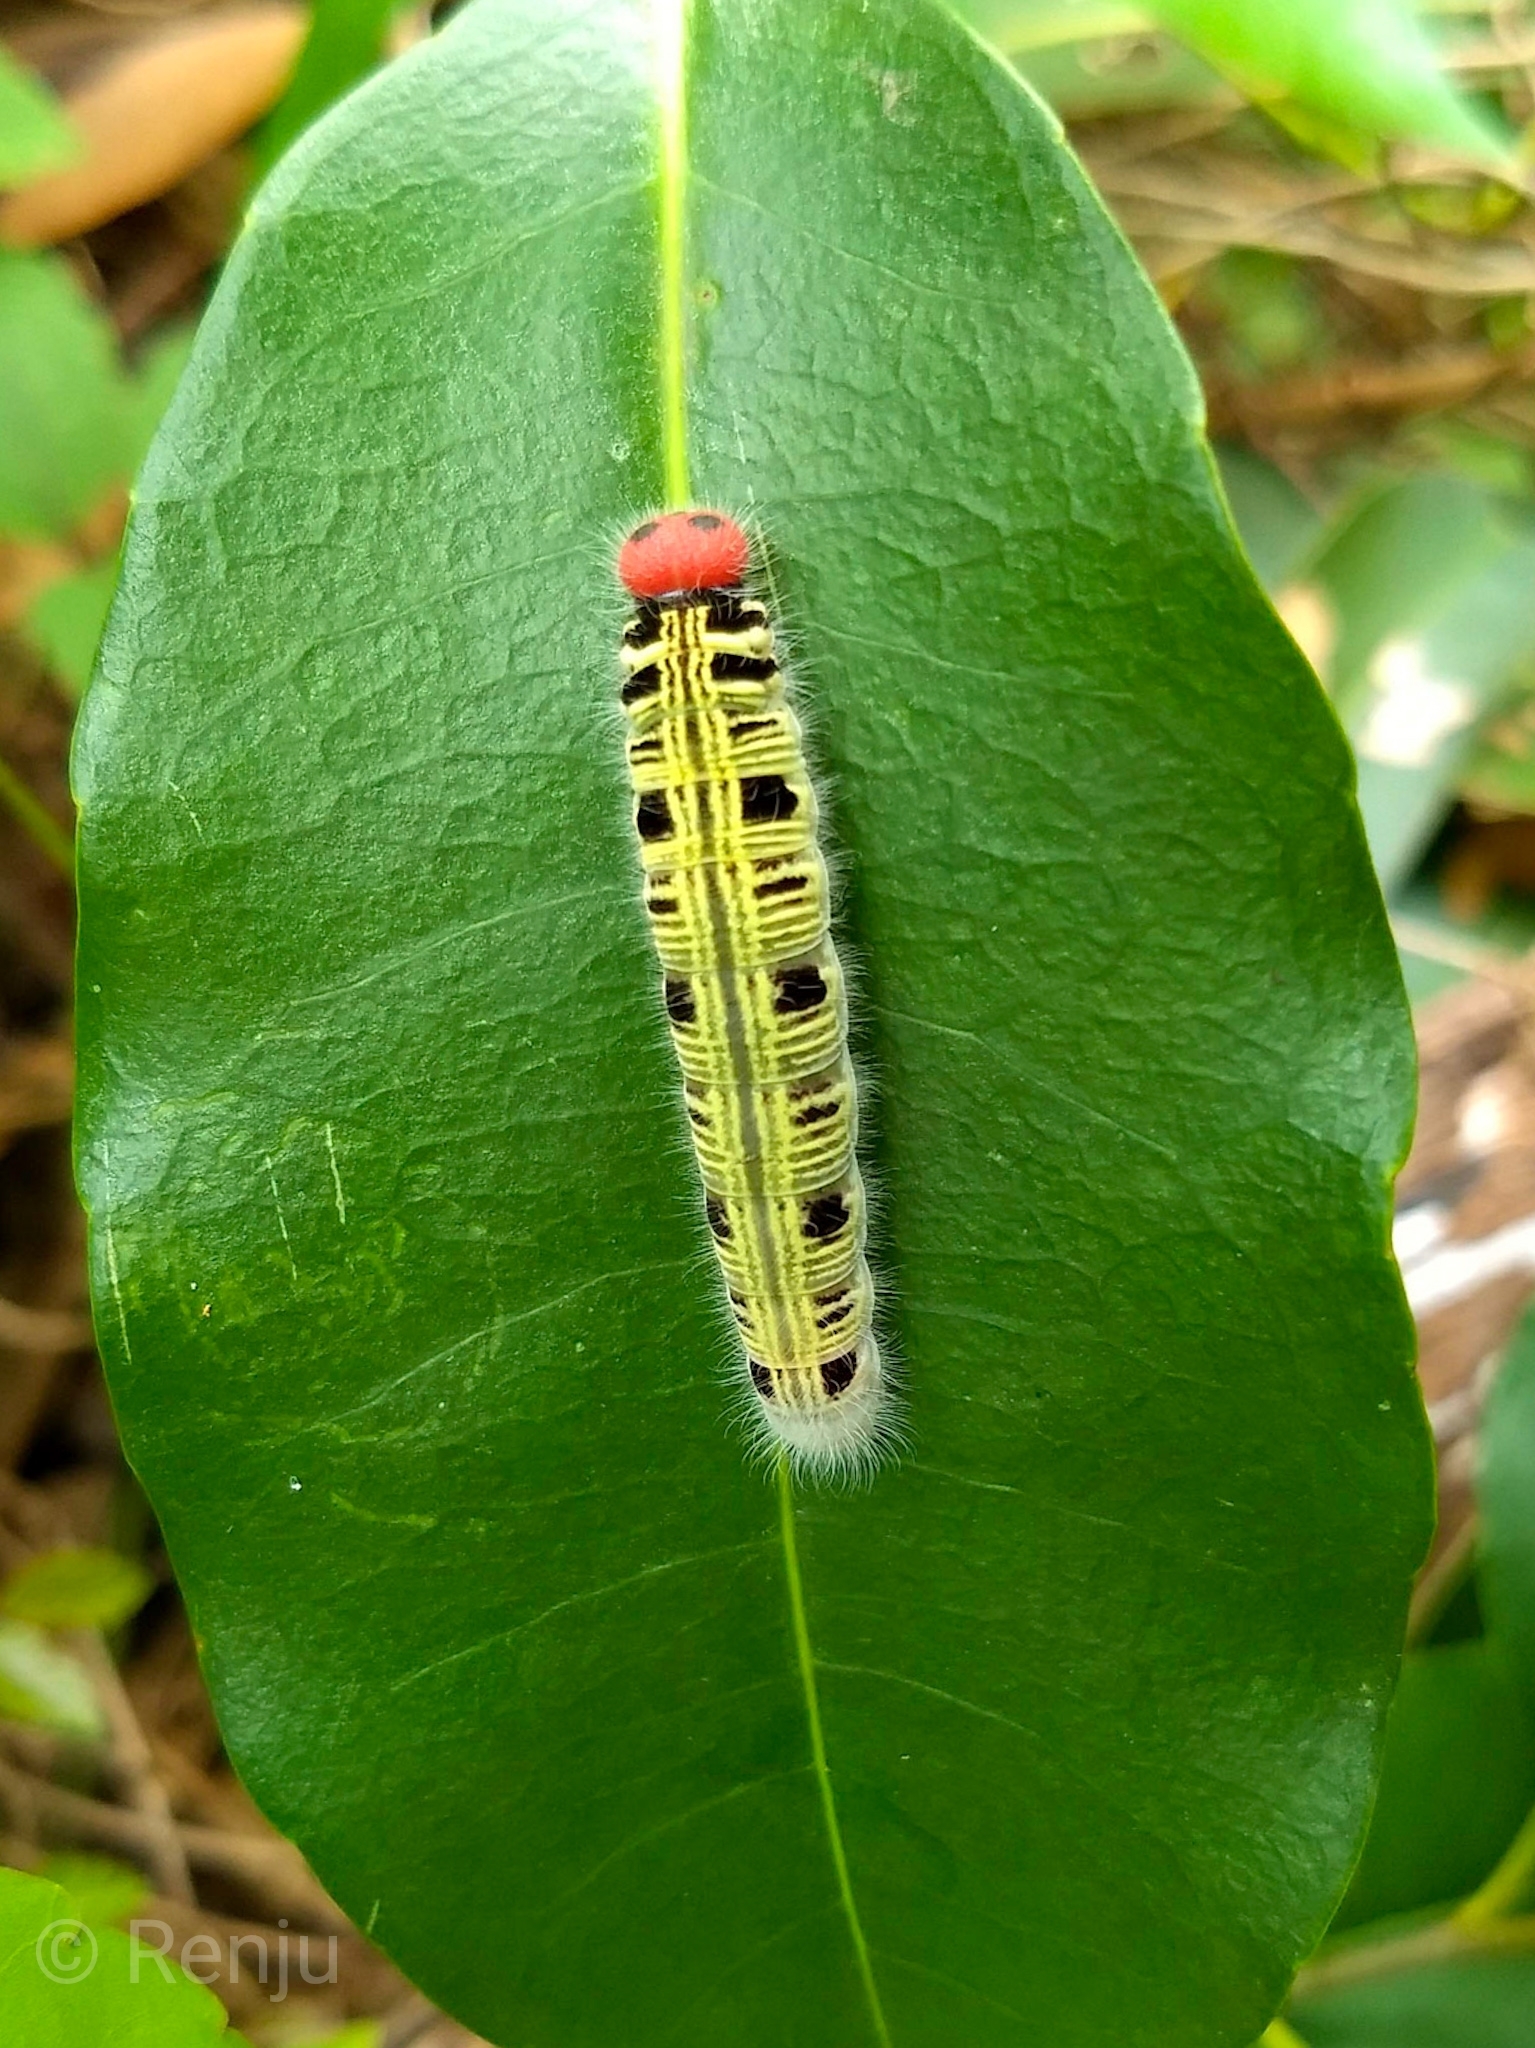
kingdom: Animalia
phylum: Arthropoda
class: Insecta
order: Lepidoptera
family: Hesperiidae
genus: Hasora
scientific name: Hasora badra
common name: Common awl
